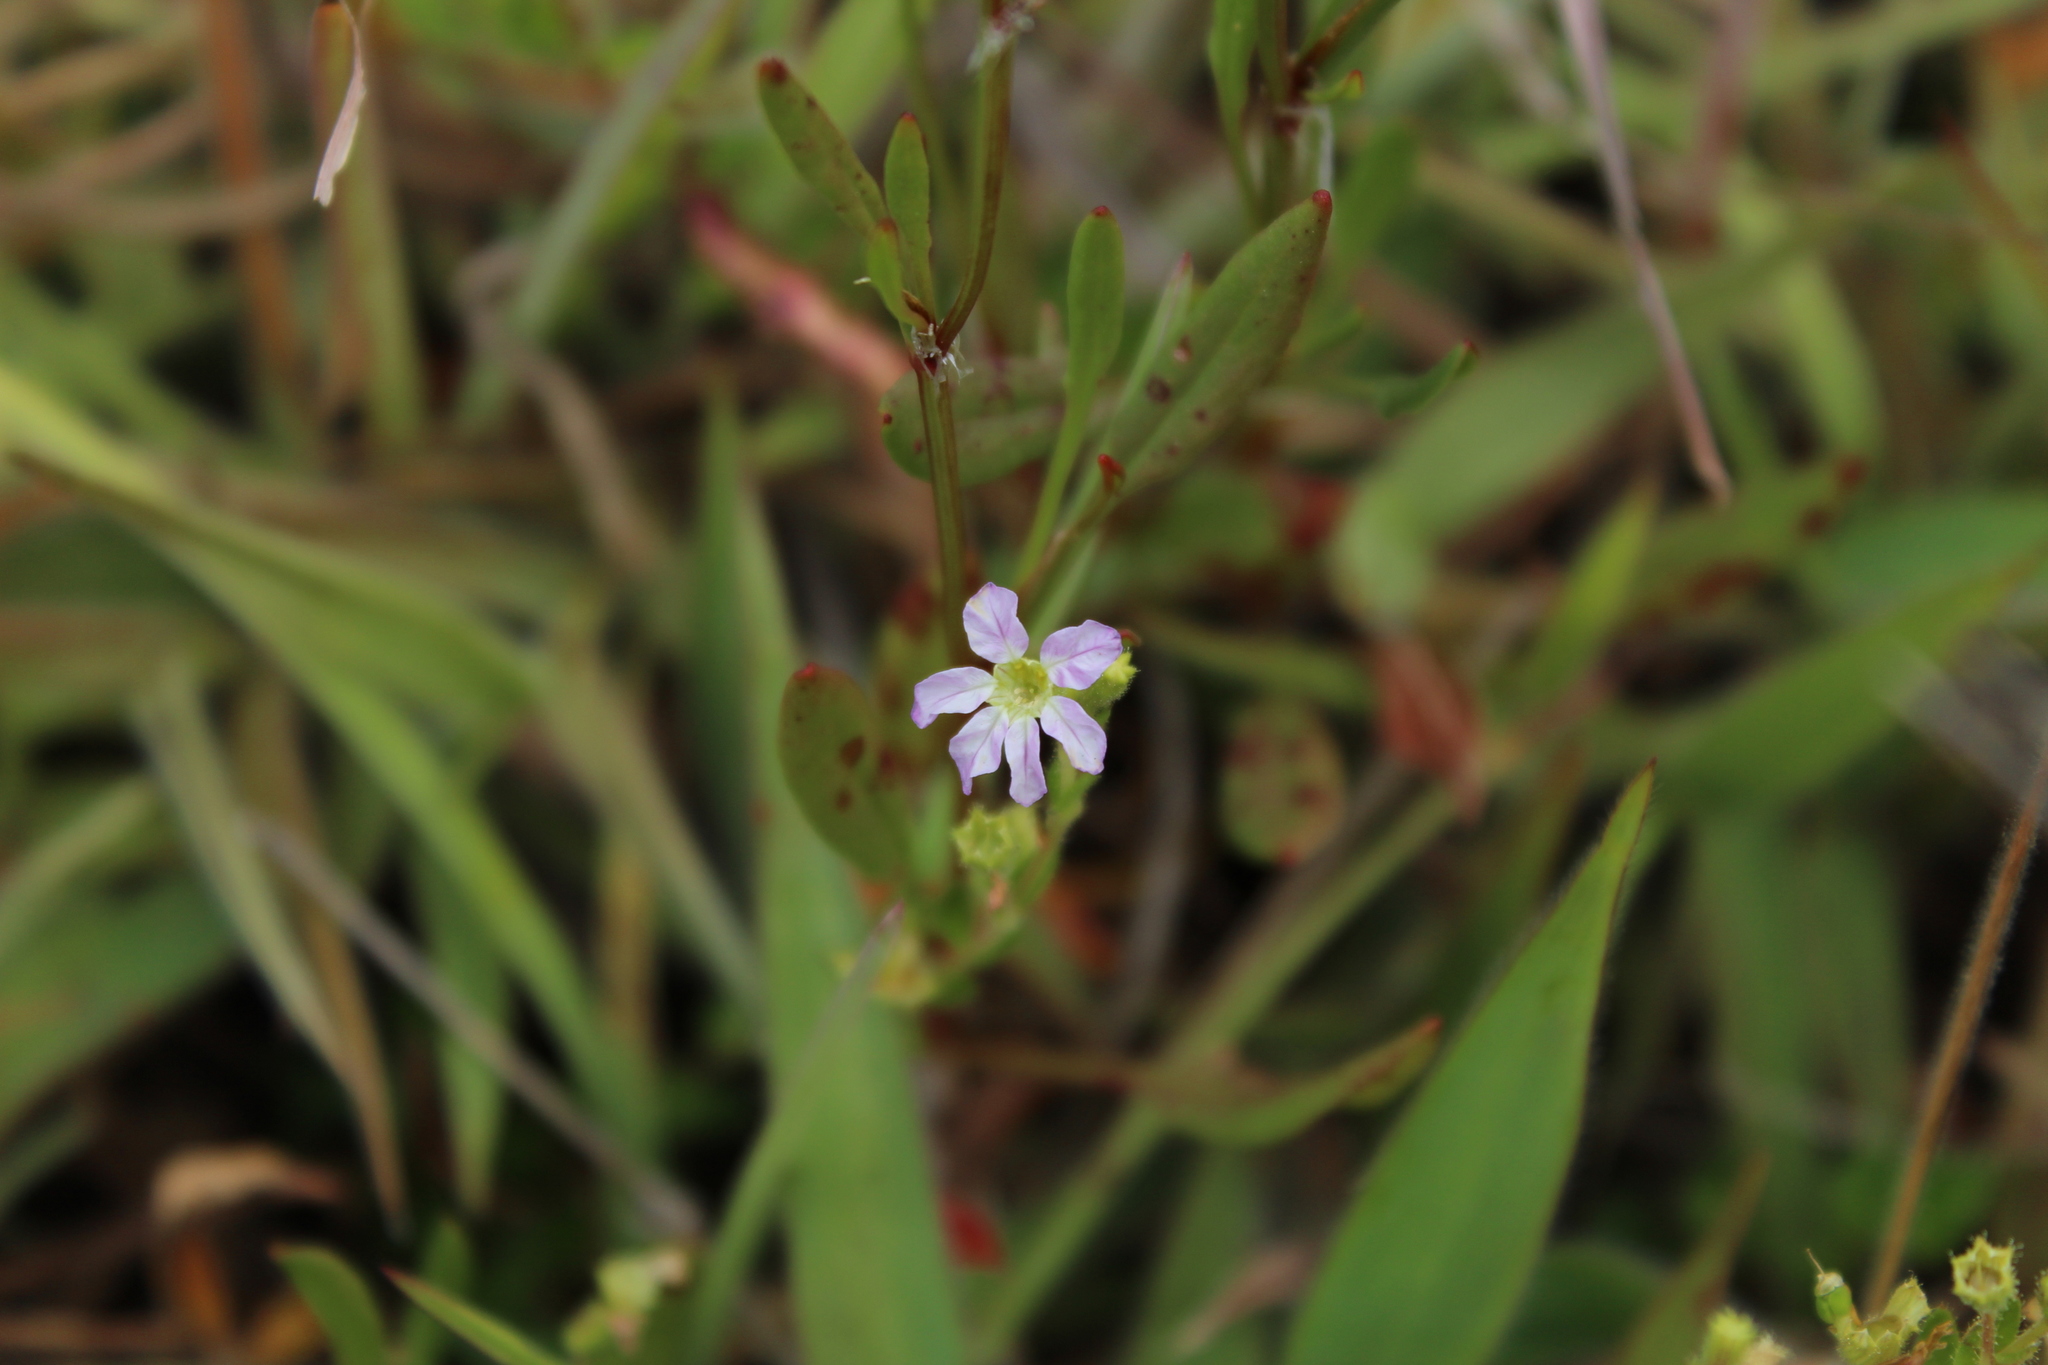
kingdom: Plantae
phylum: Tracheophyta
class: Magnoliopsida
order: Myrtales
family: Lythraceae
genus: Cuphea
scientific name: Cuphea ciliata
